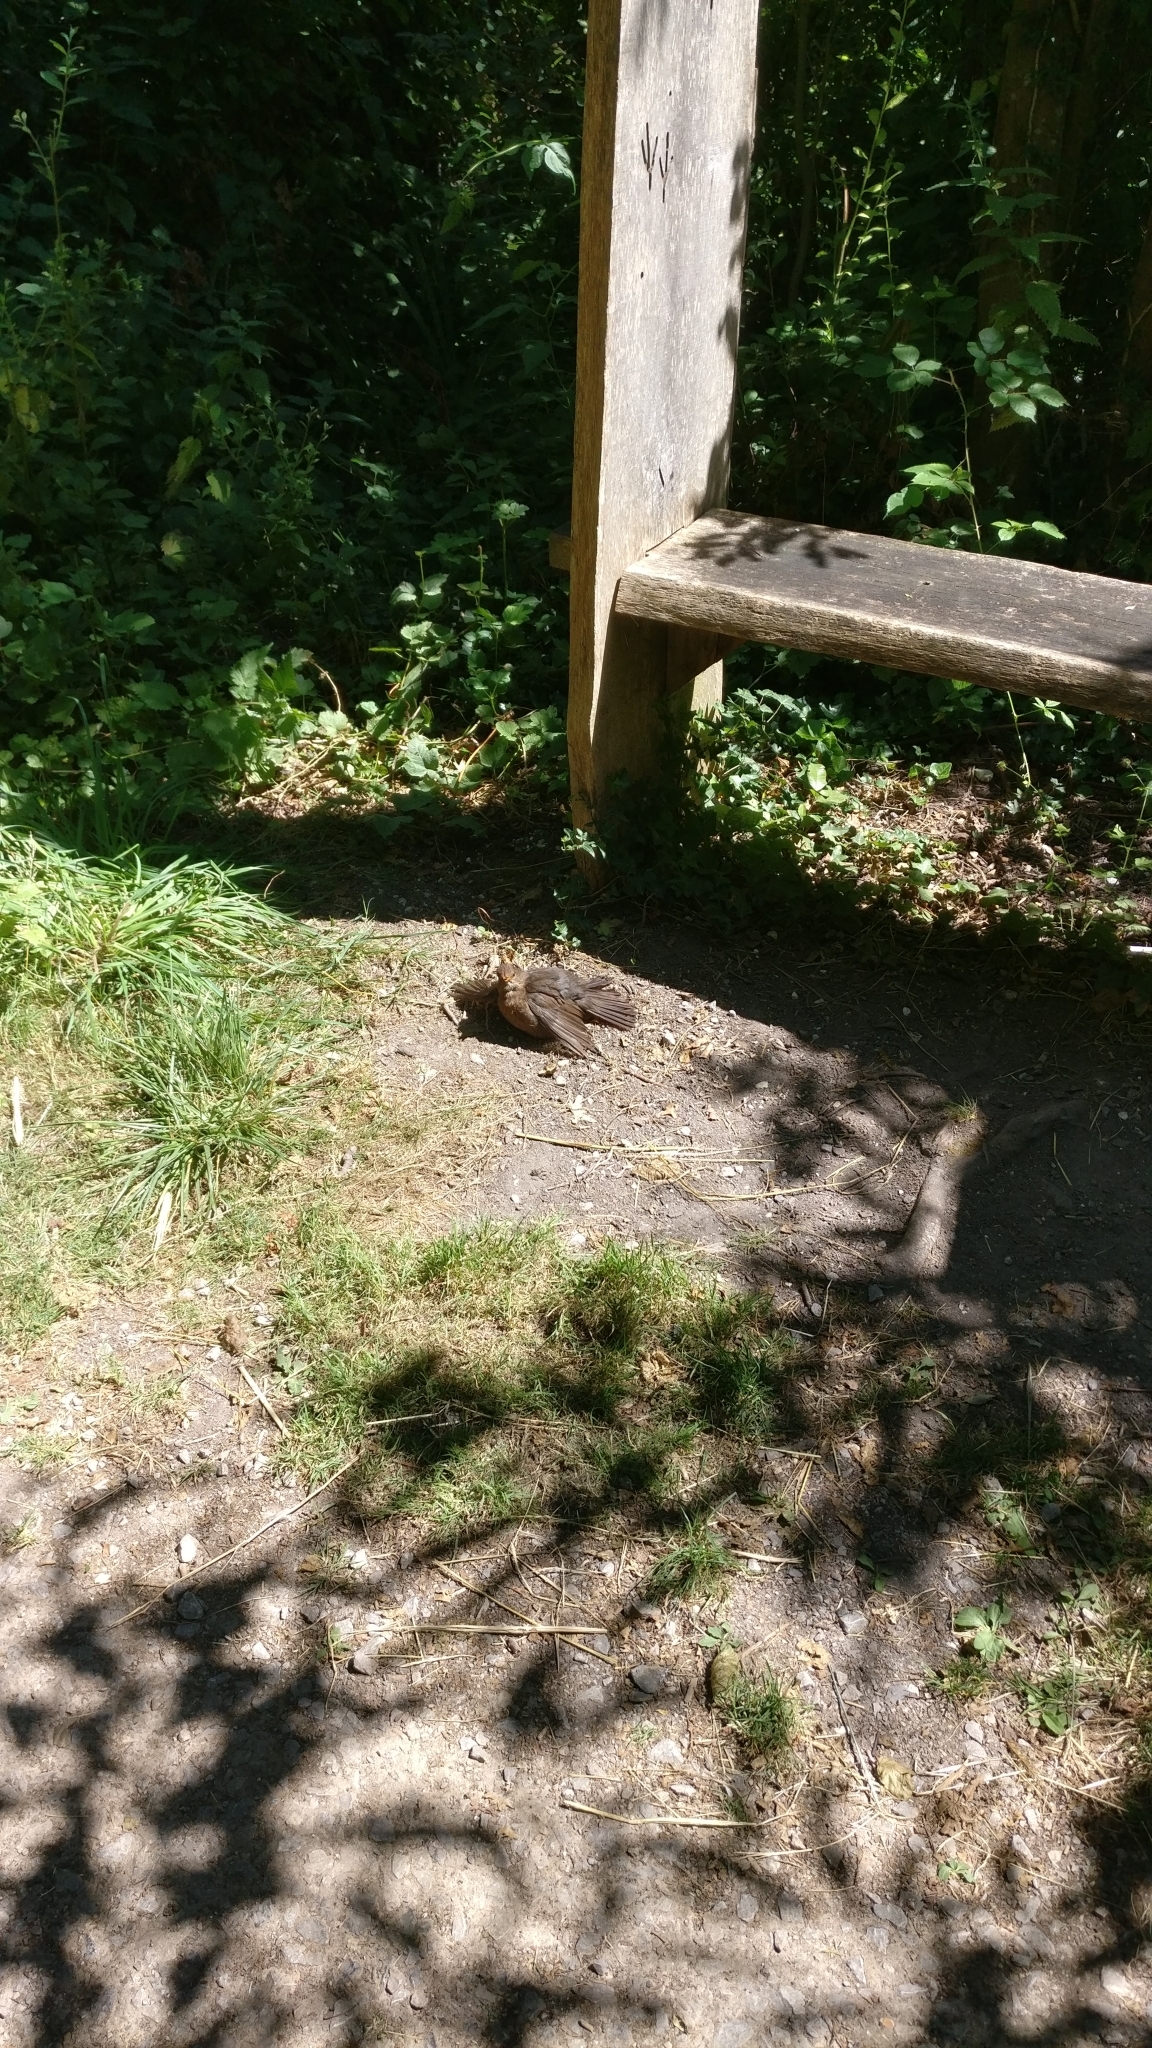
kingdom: Animalia
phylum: Chordata
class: Aves
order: Passeriformes
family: Turdidae
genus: Turdus
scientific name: Turdus merula
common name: Common blackbird
